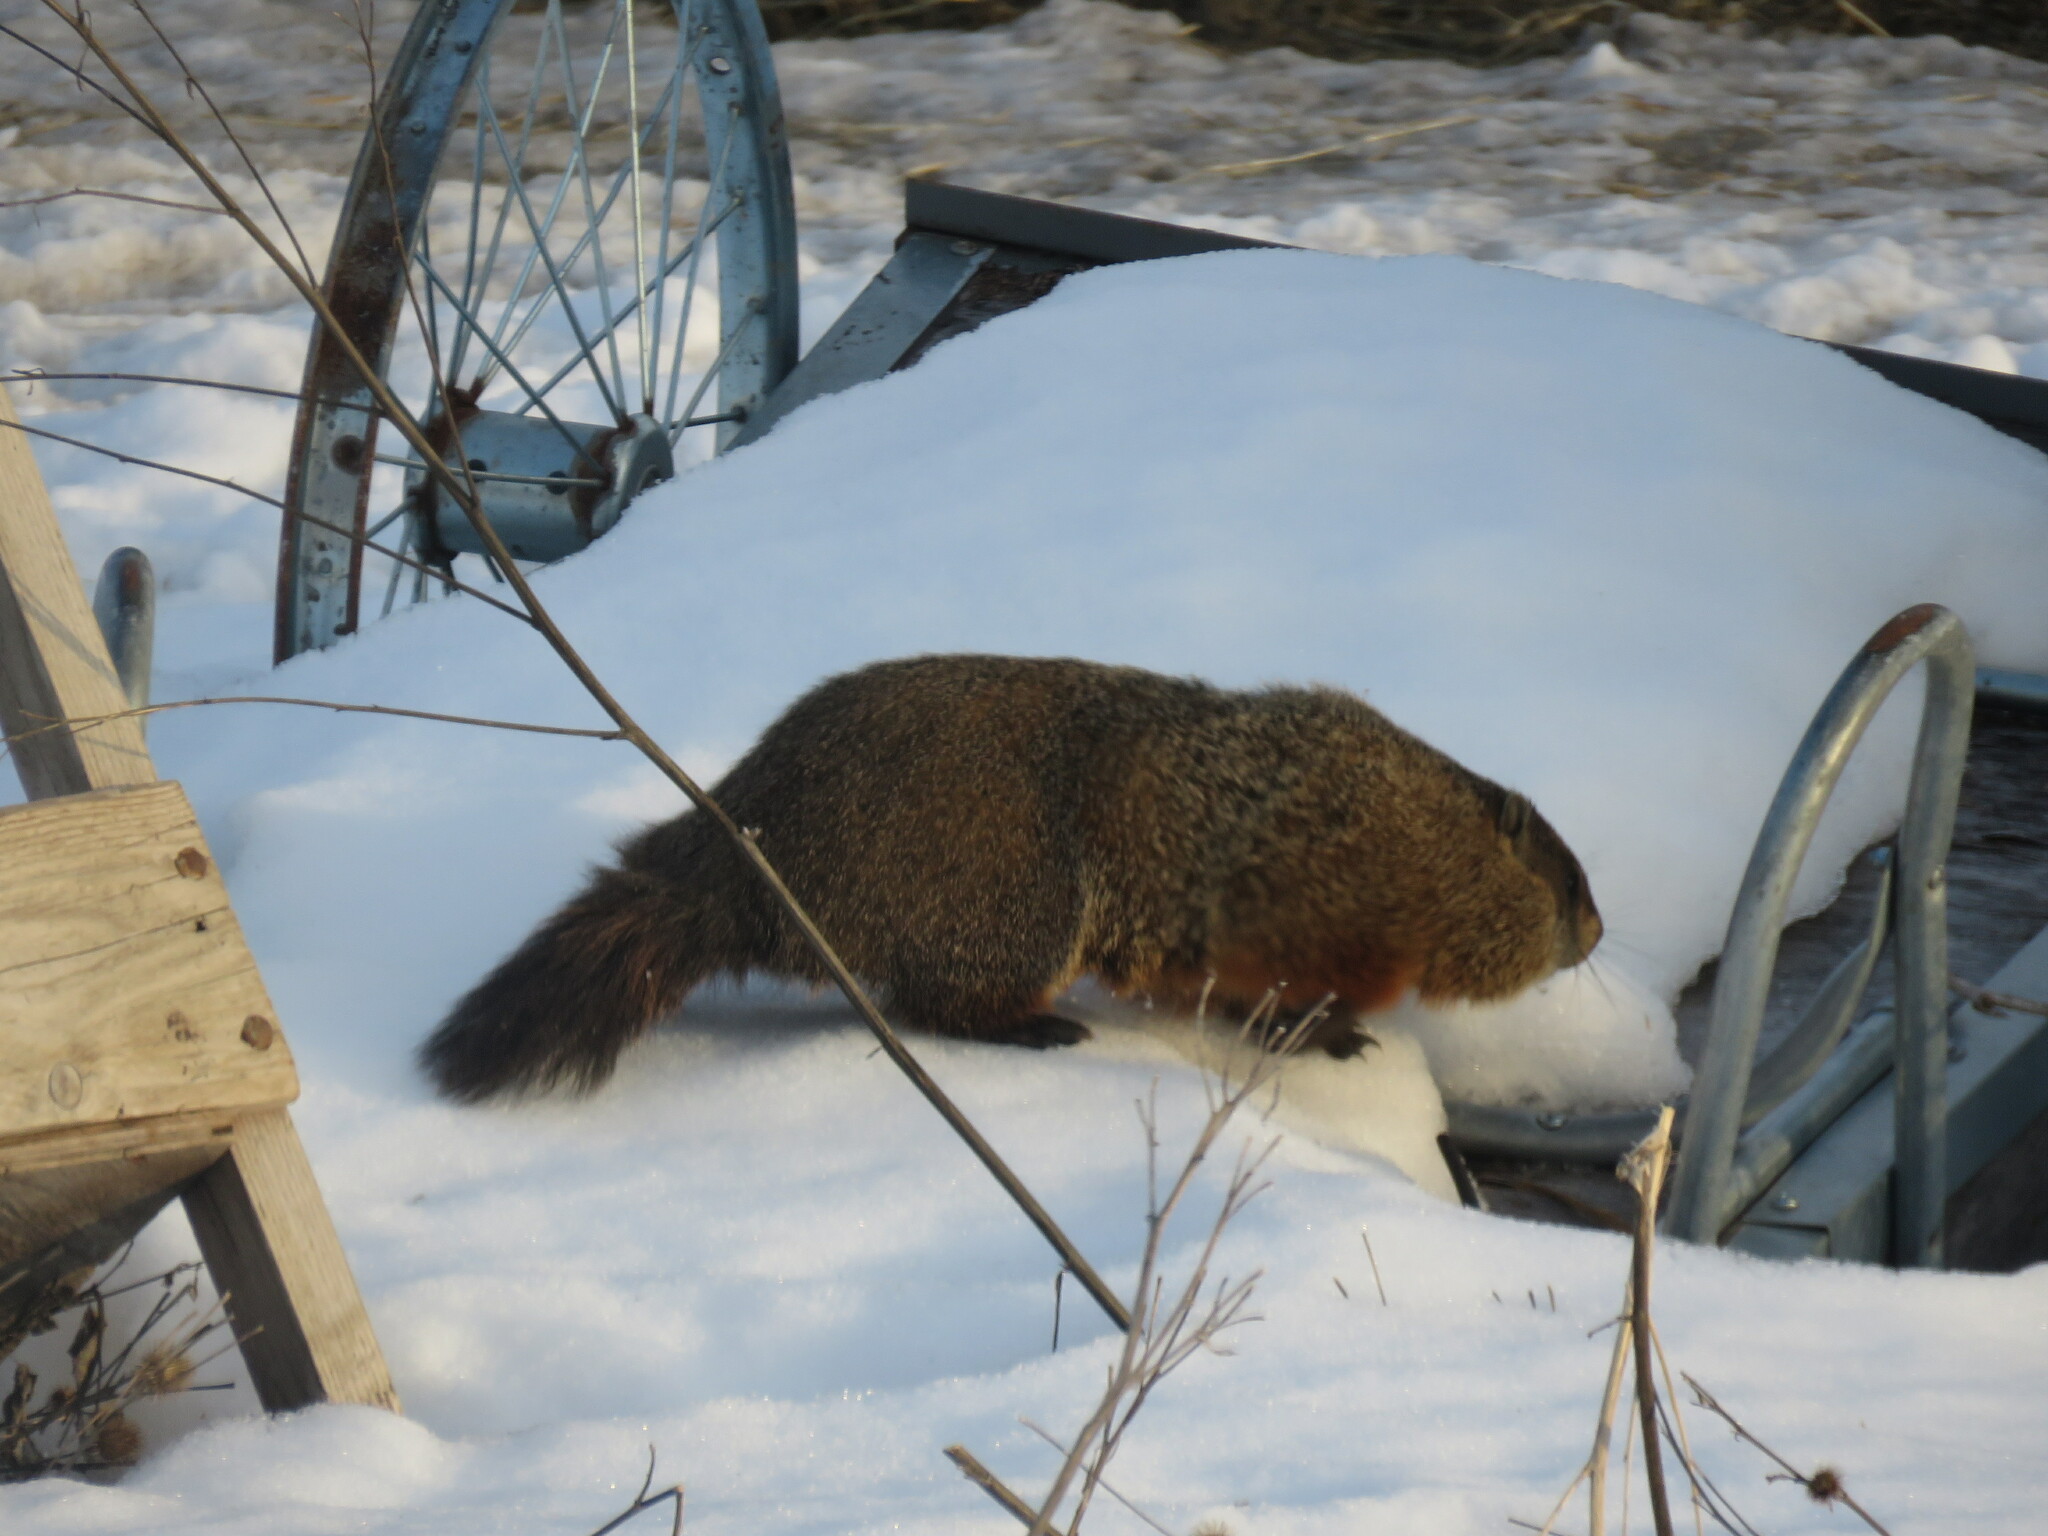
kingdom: Animalia
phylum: Chordata
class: Mammalia
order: Rodentia
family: Sciuridae
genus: Marmota
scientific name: Marmota monax
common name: Groundhog
